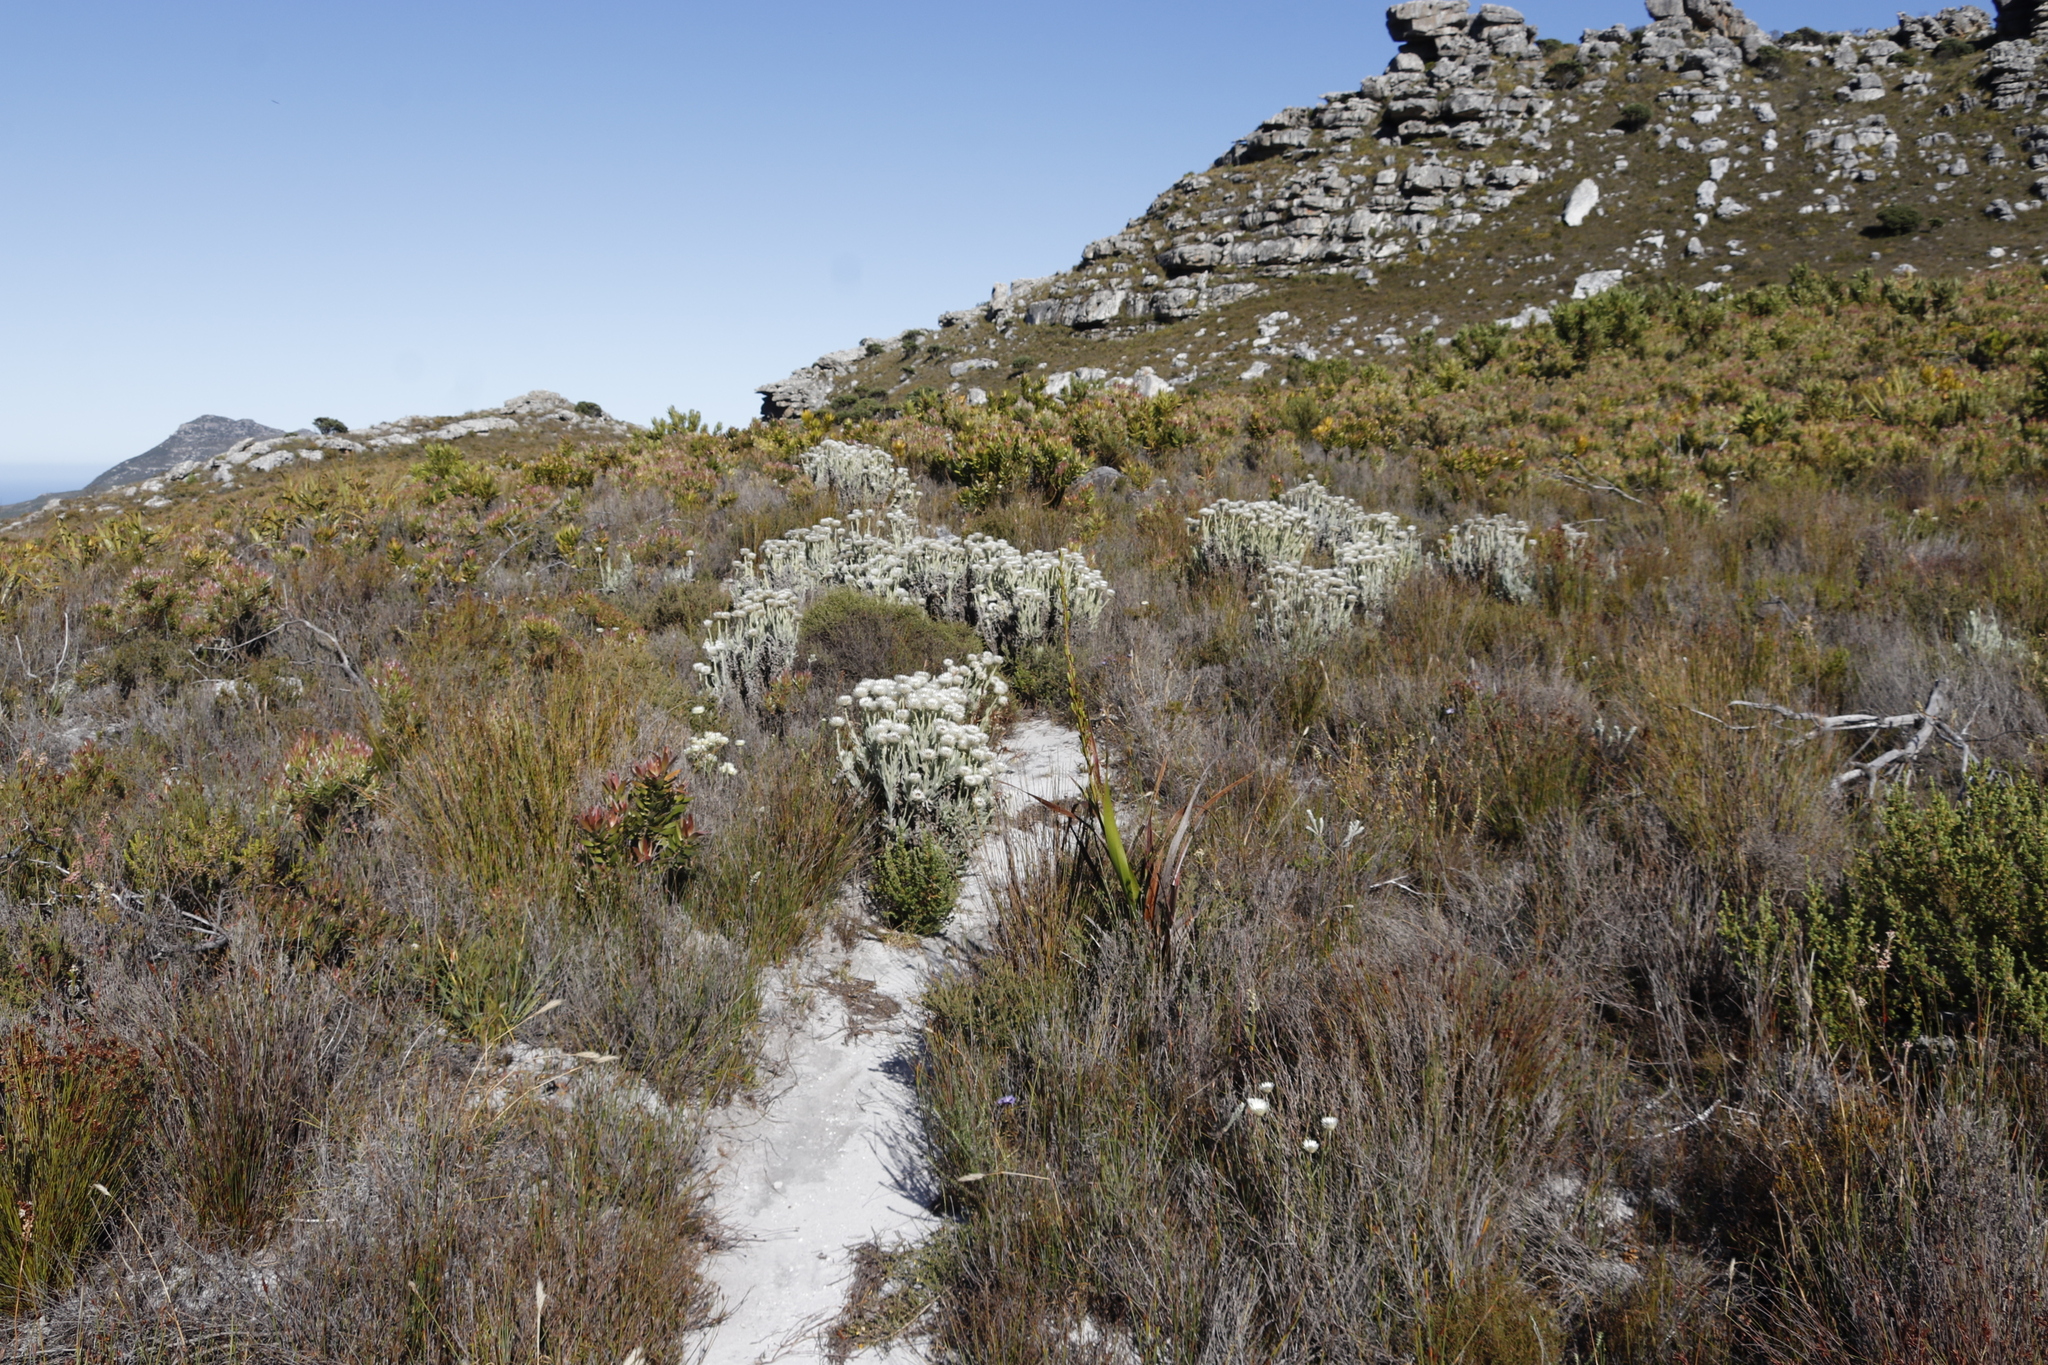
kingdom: Plantae
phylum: Tracheophyta
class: Magnoliopsida
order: Asterales
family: Asteraceae
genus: Syncarpha
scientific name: Syncarpha vestita
